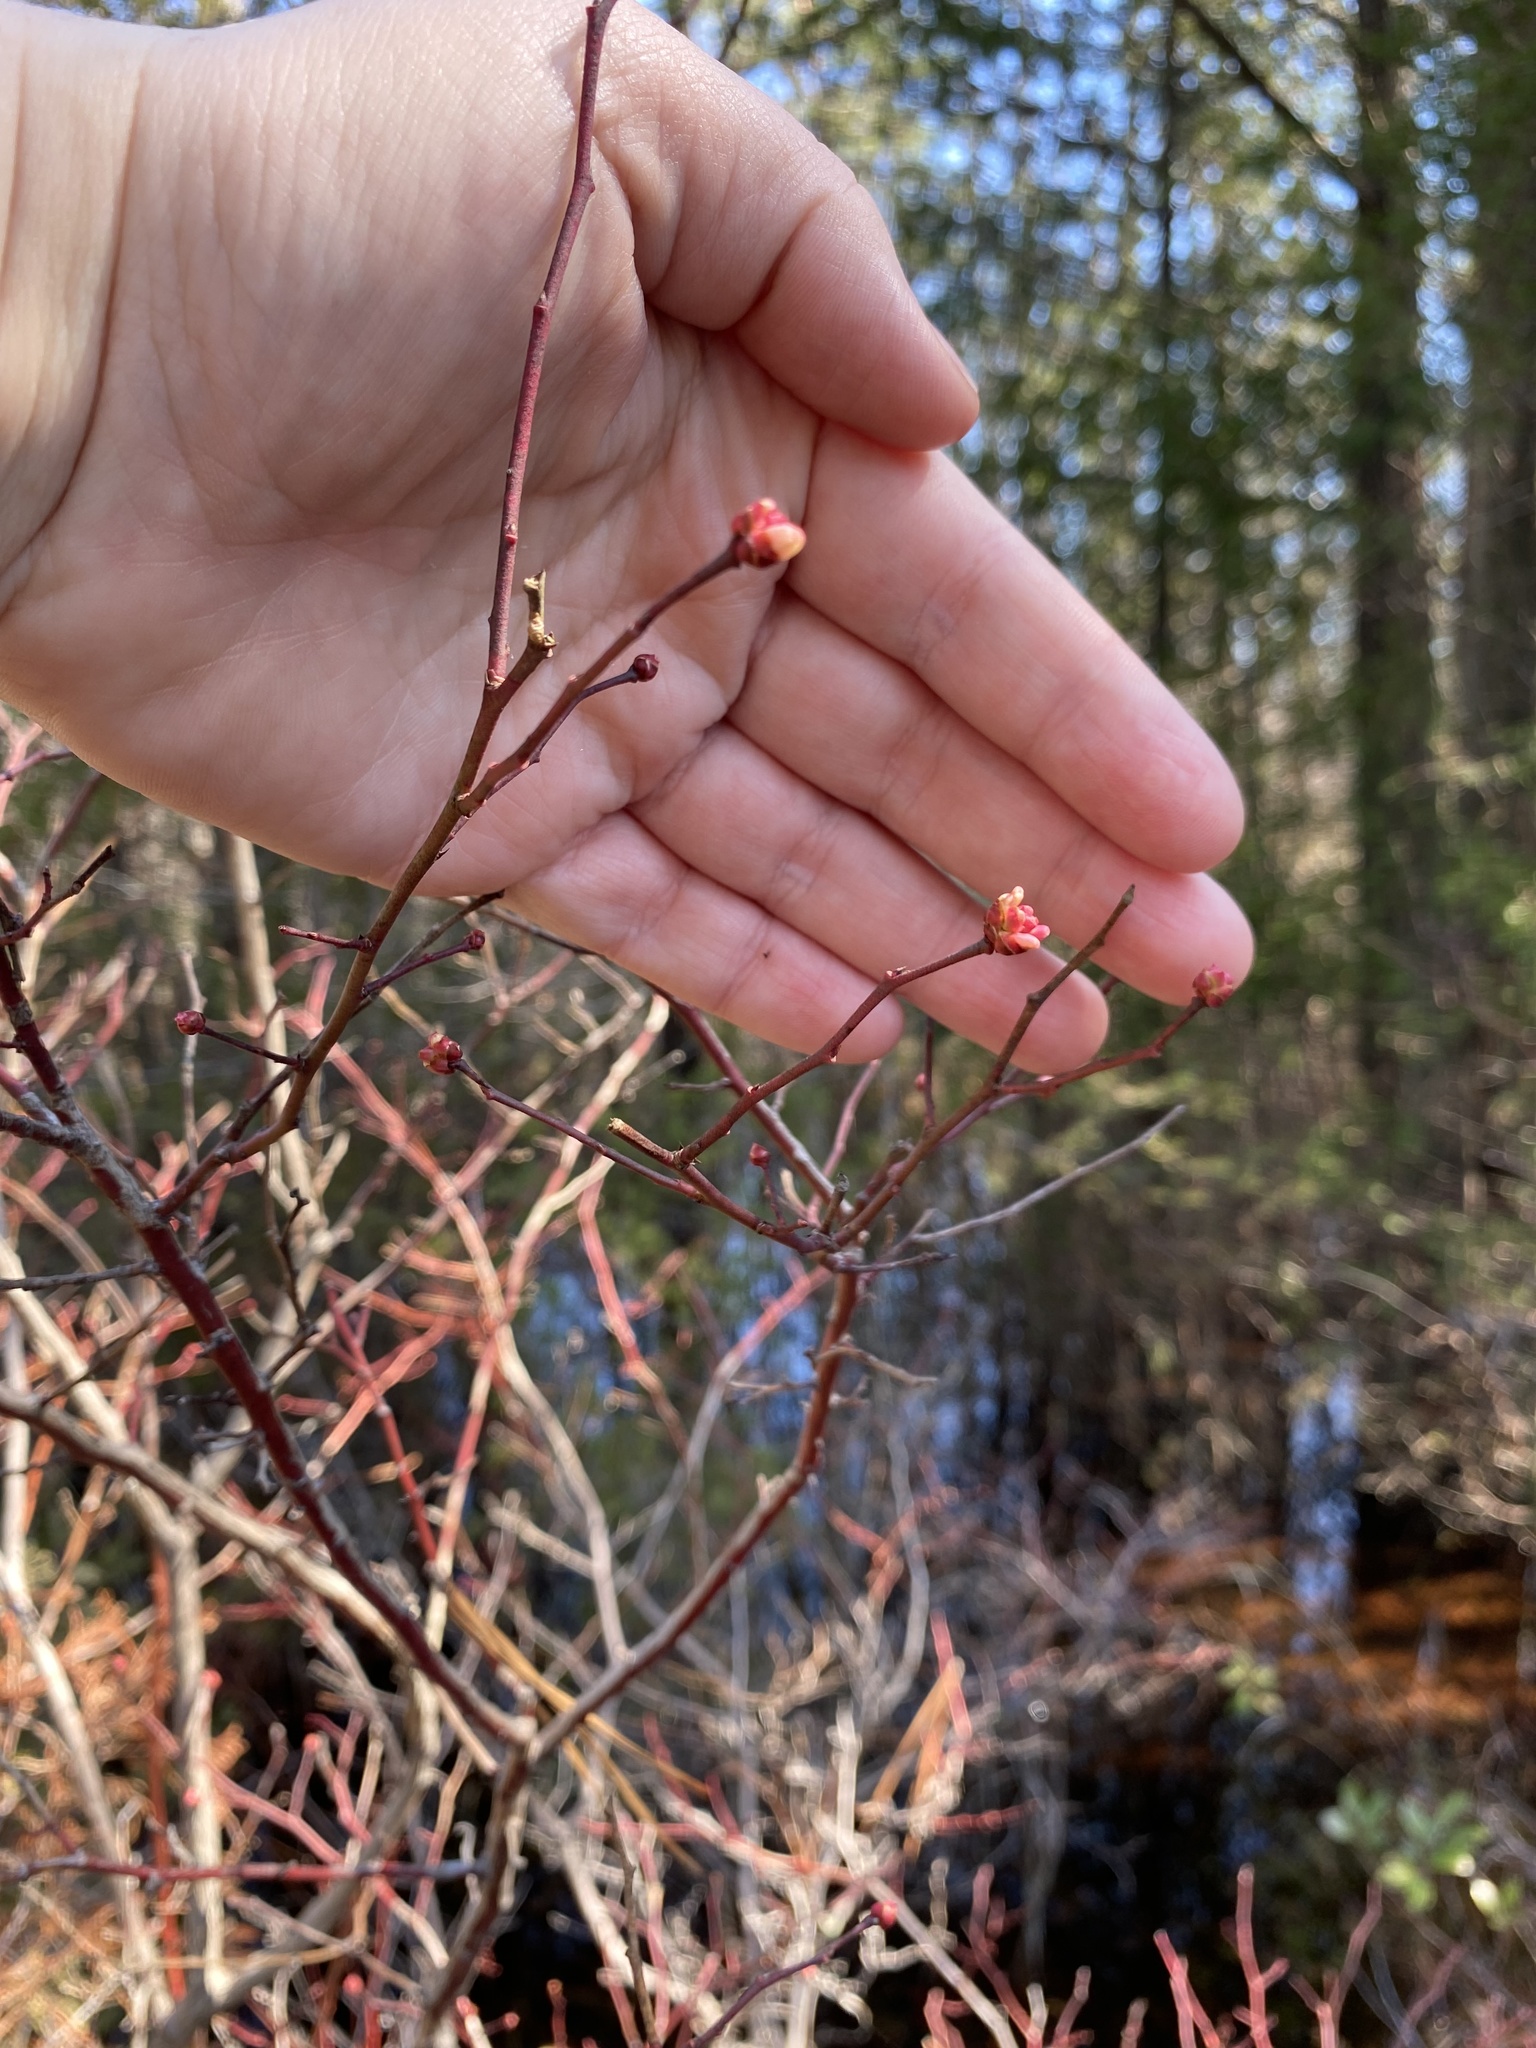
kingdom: Plantae
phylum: Tracheophyta
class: Magnoliopsida
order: Ericales
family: Ericaceae
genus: Vaccinium
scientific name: Vaccinium corymbosum
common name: Blueberry
